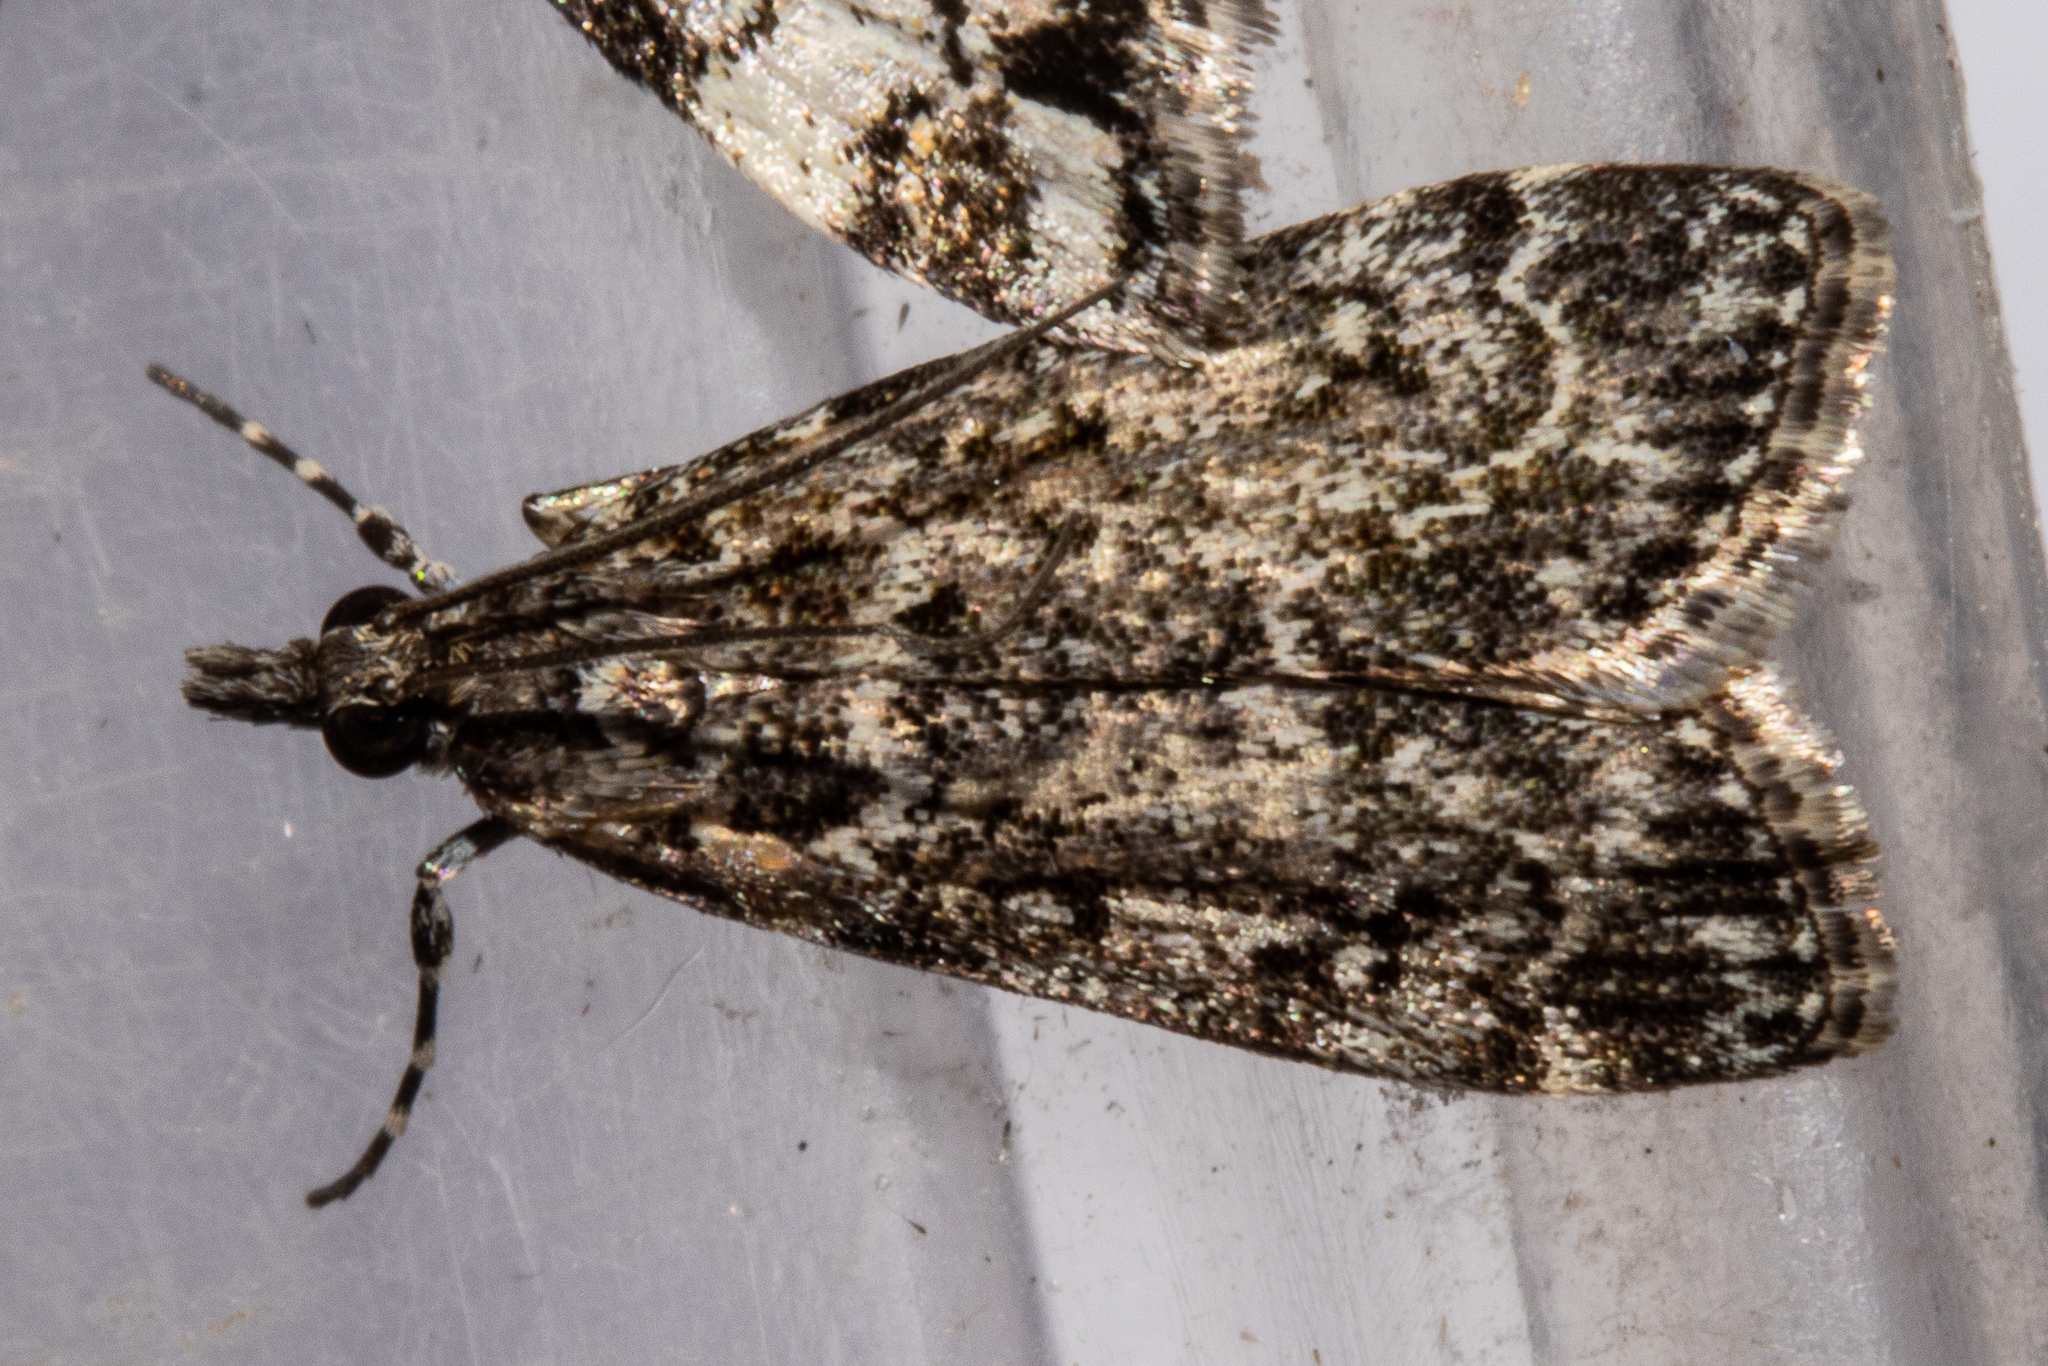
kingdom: Animalia
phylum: Arthropoda
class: Insecta
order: Lepidoptera
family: Crambidae
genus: Eudonia
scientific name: Eudonia philerga
